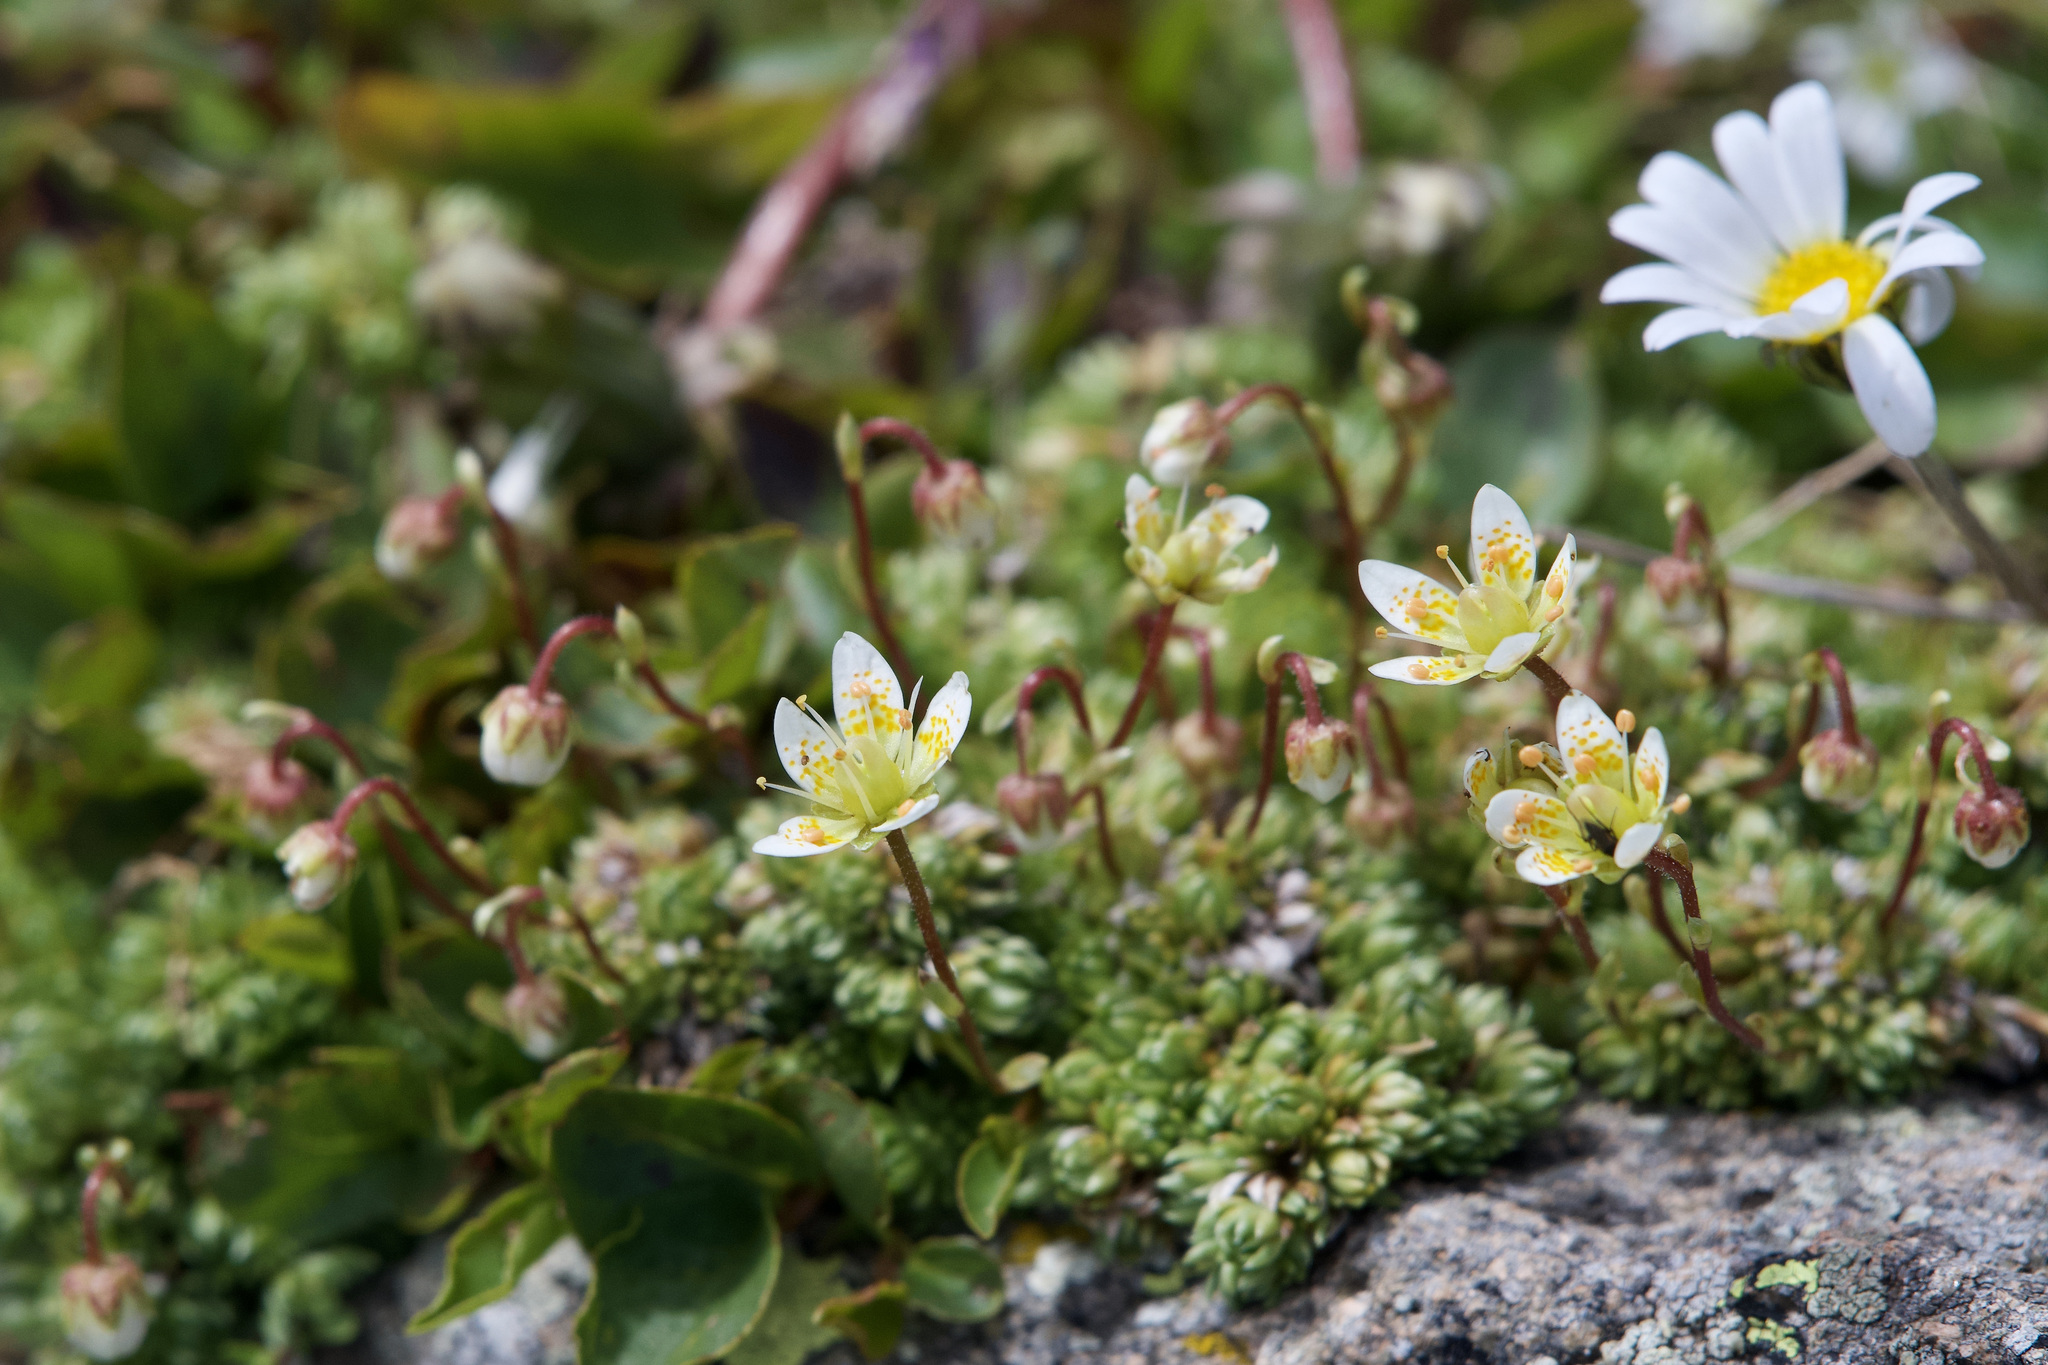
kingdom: Plantae
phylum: Tracheophyta
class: Magnoliopsida
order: Saxifragales
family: Saxifragaceae
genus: Saxifraga
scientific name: Saxifraga bryoides
